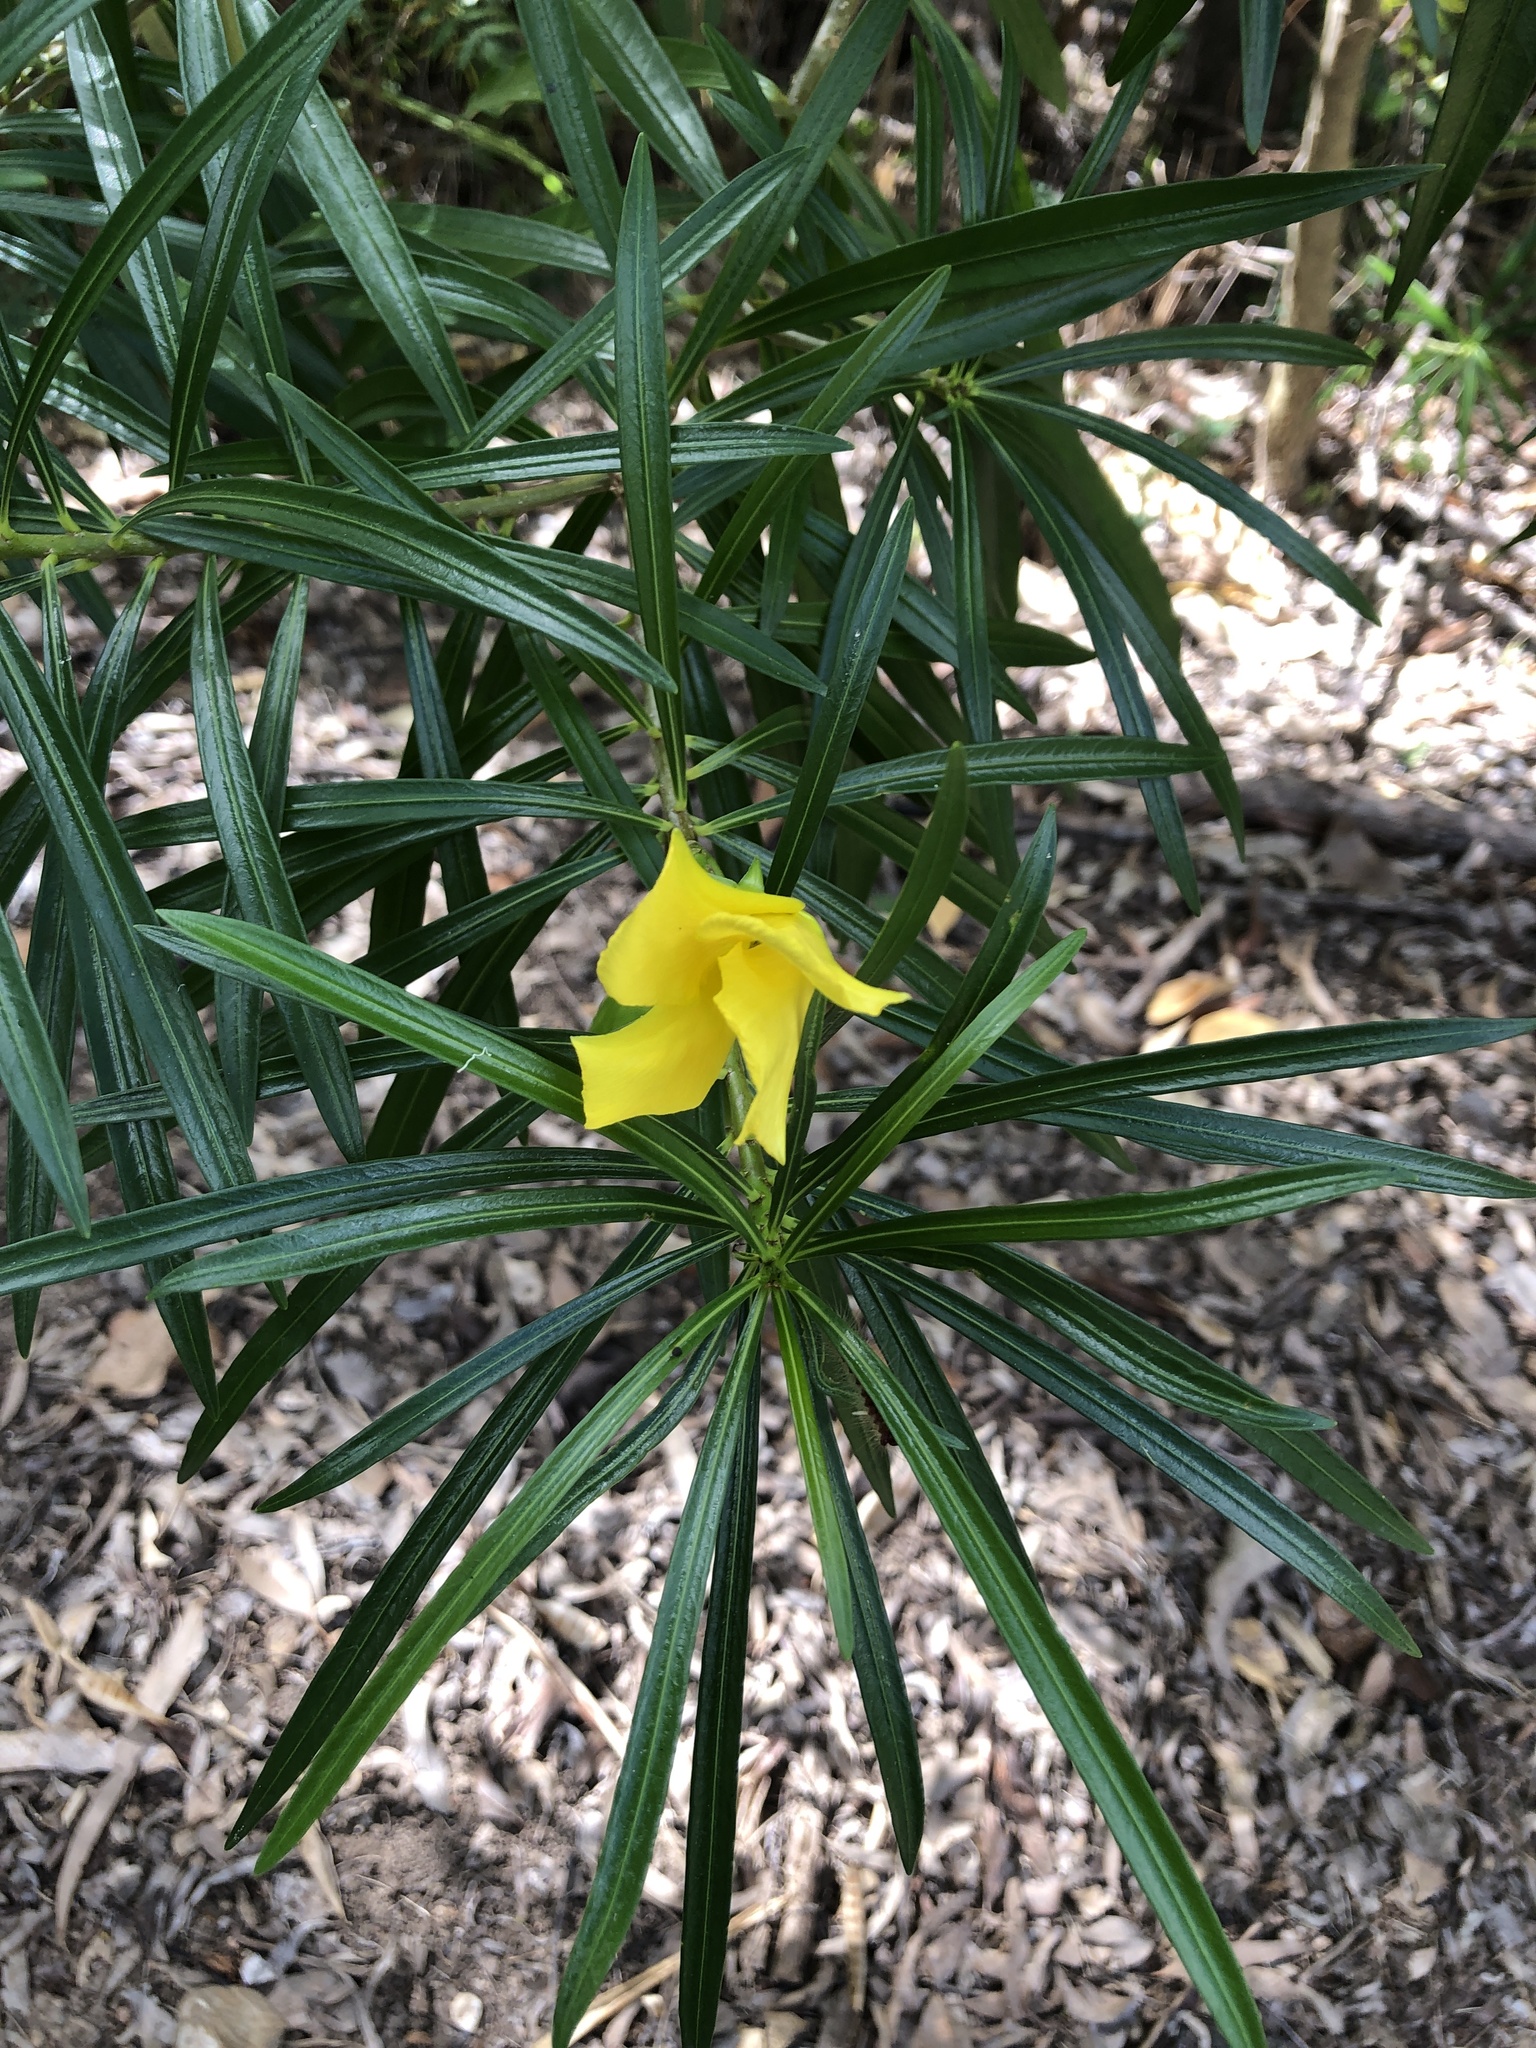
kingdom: Plantae
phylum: Tracheophyta
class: Magnoliopsida
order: Gentianales
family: Apocynaceae
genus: Cascabela
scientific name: Cascabela thevetia
